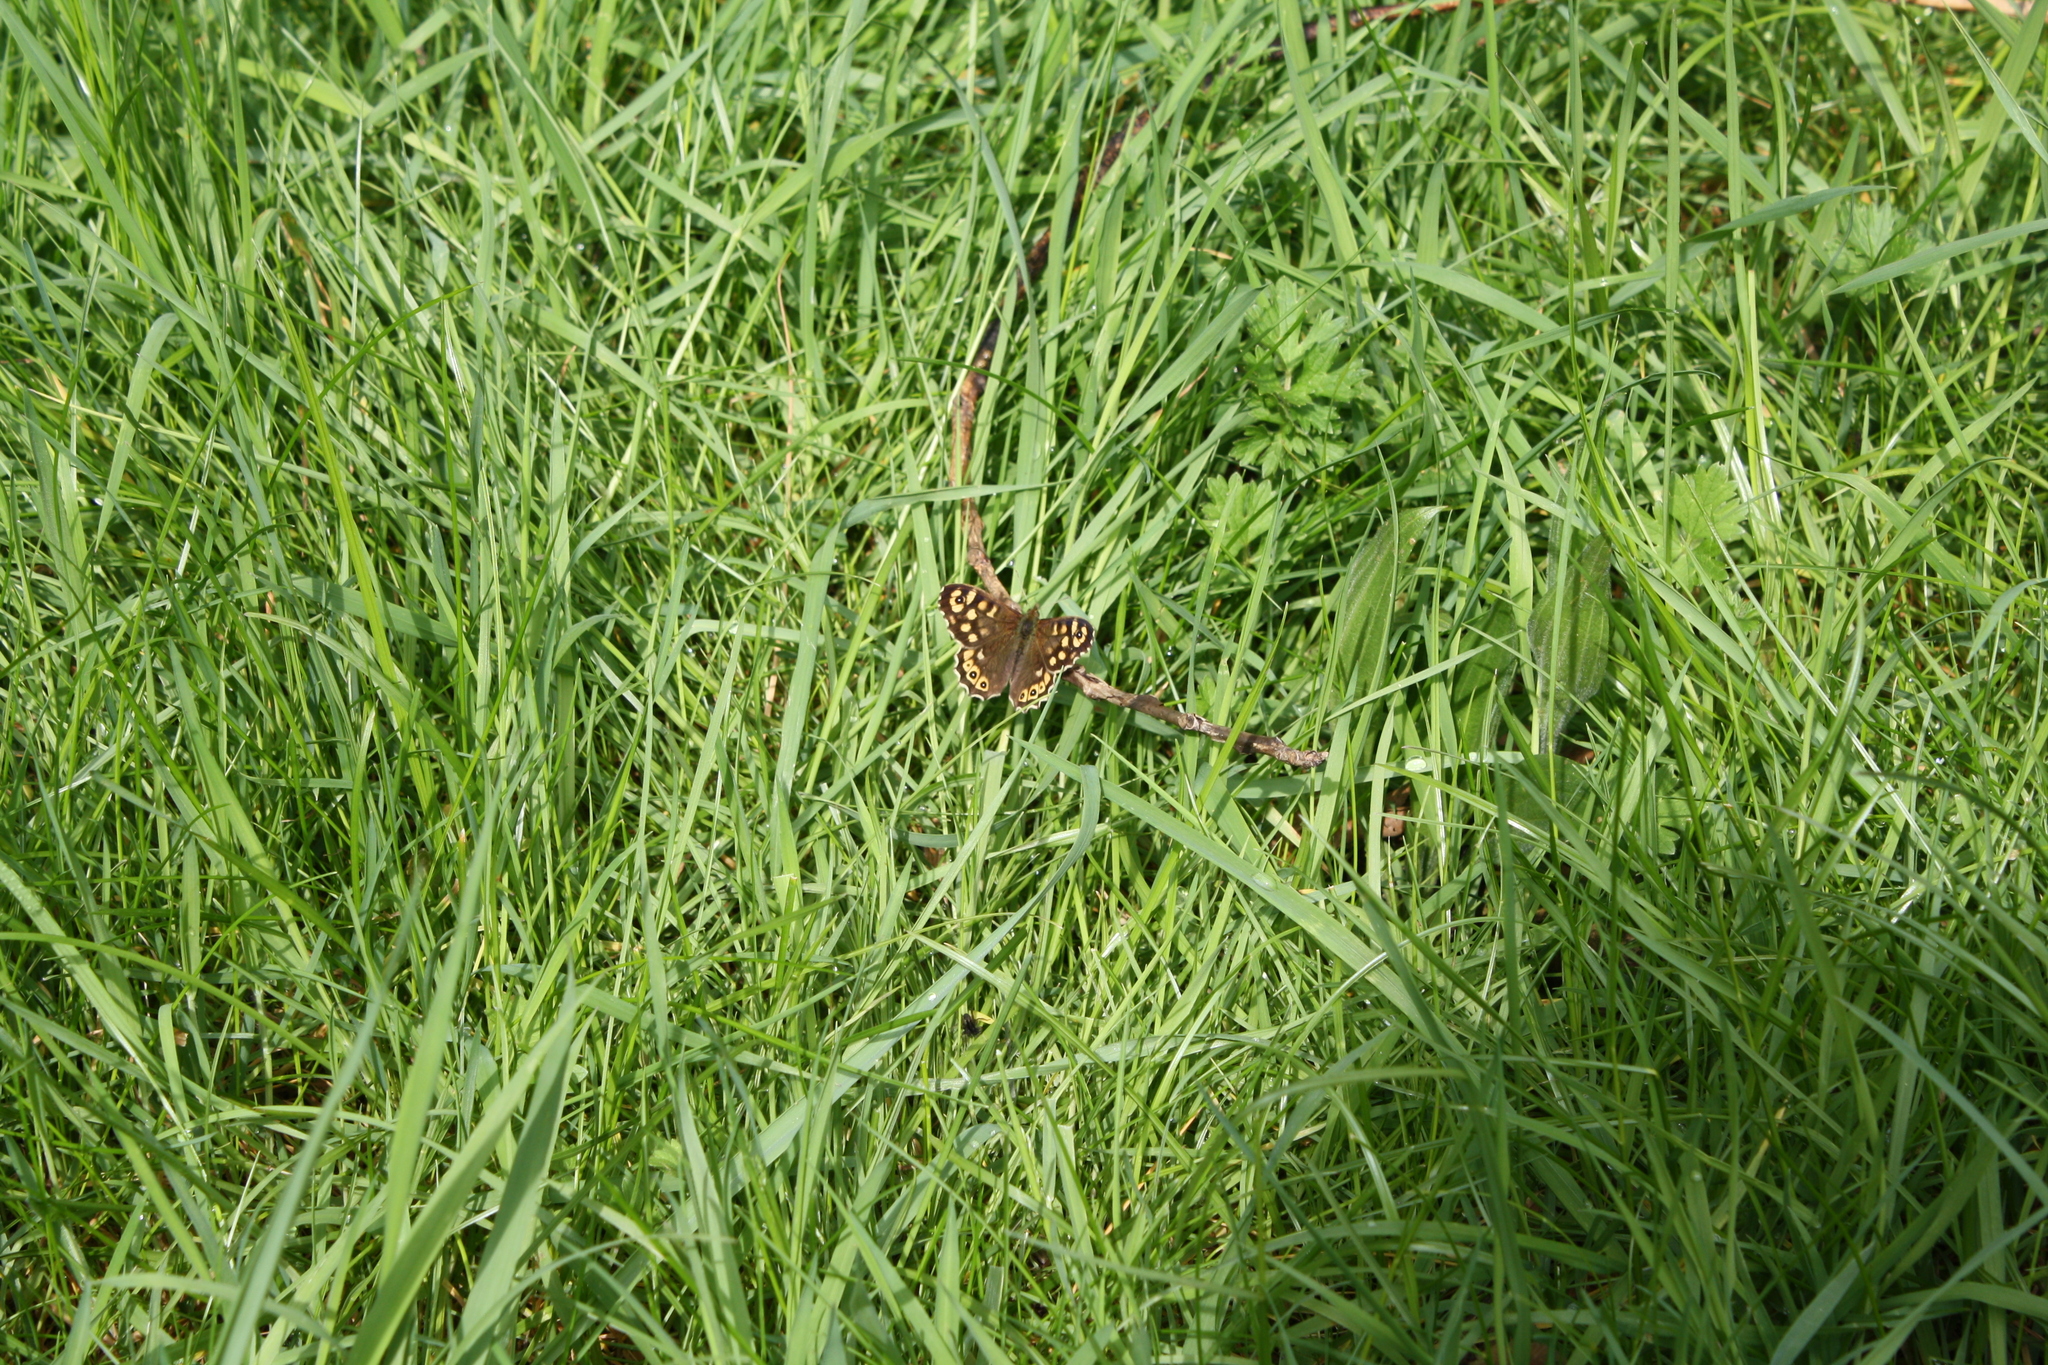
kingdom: Animalia
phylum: Arthropoda
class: Insecta
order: Lepidoptera
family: Nymphalidae
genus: Pararge
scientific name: Pararge aegeria
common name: Speckled wood
